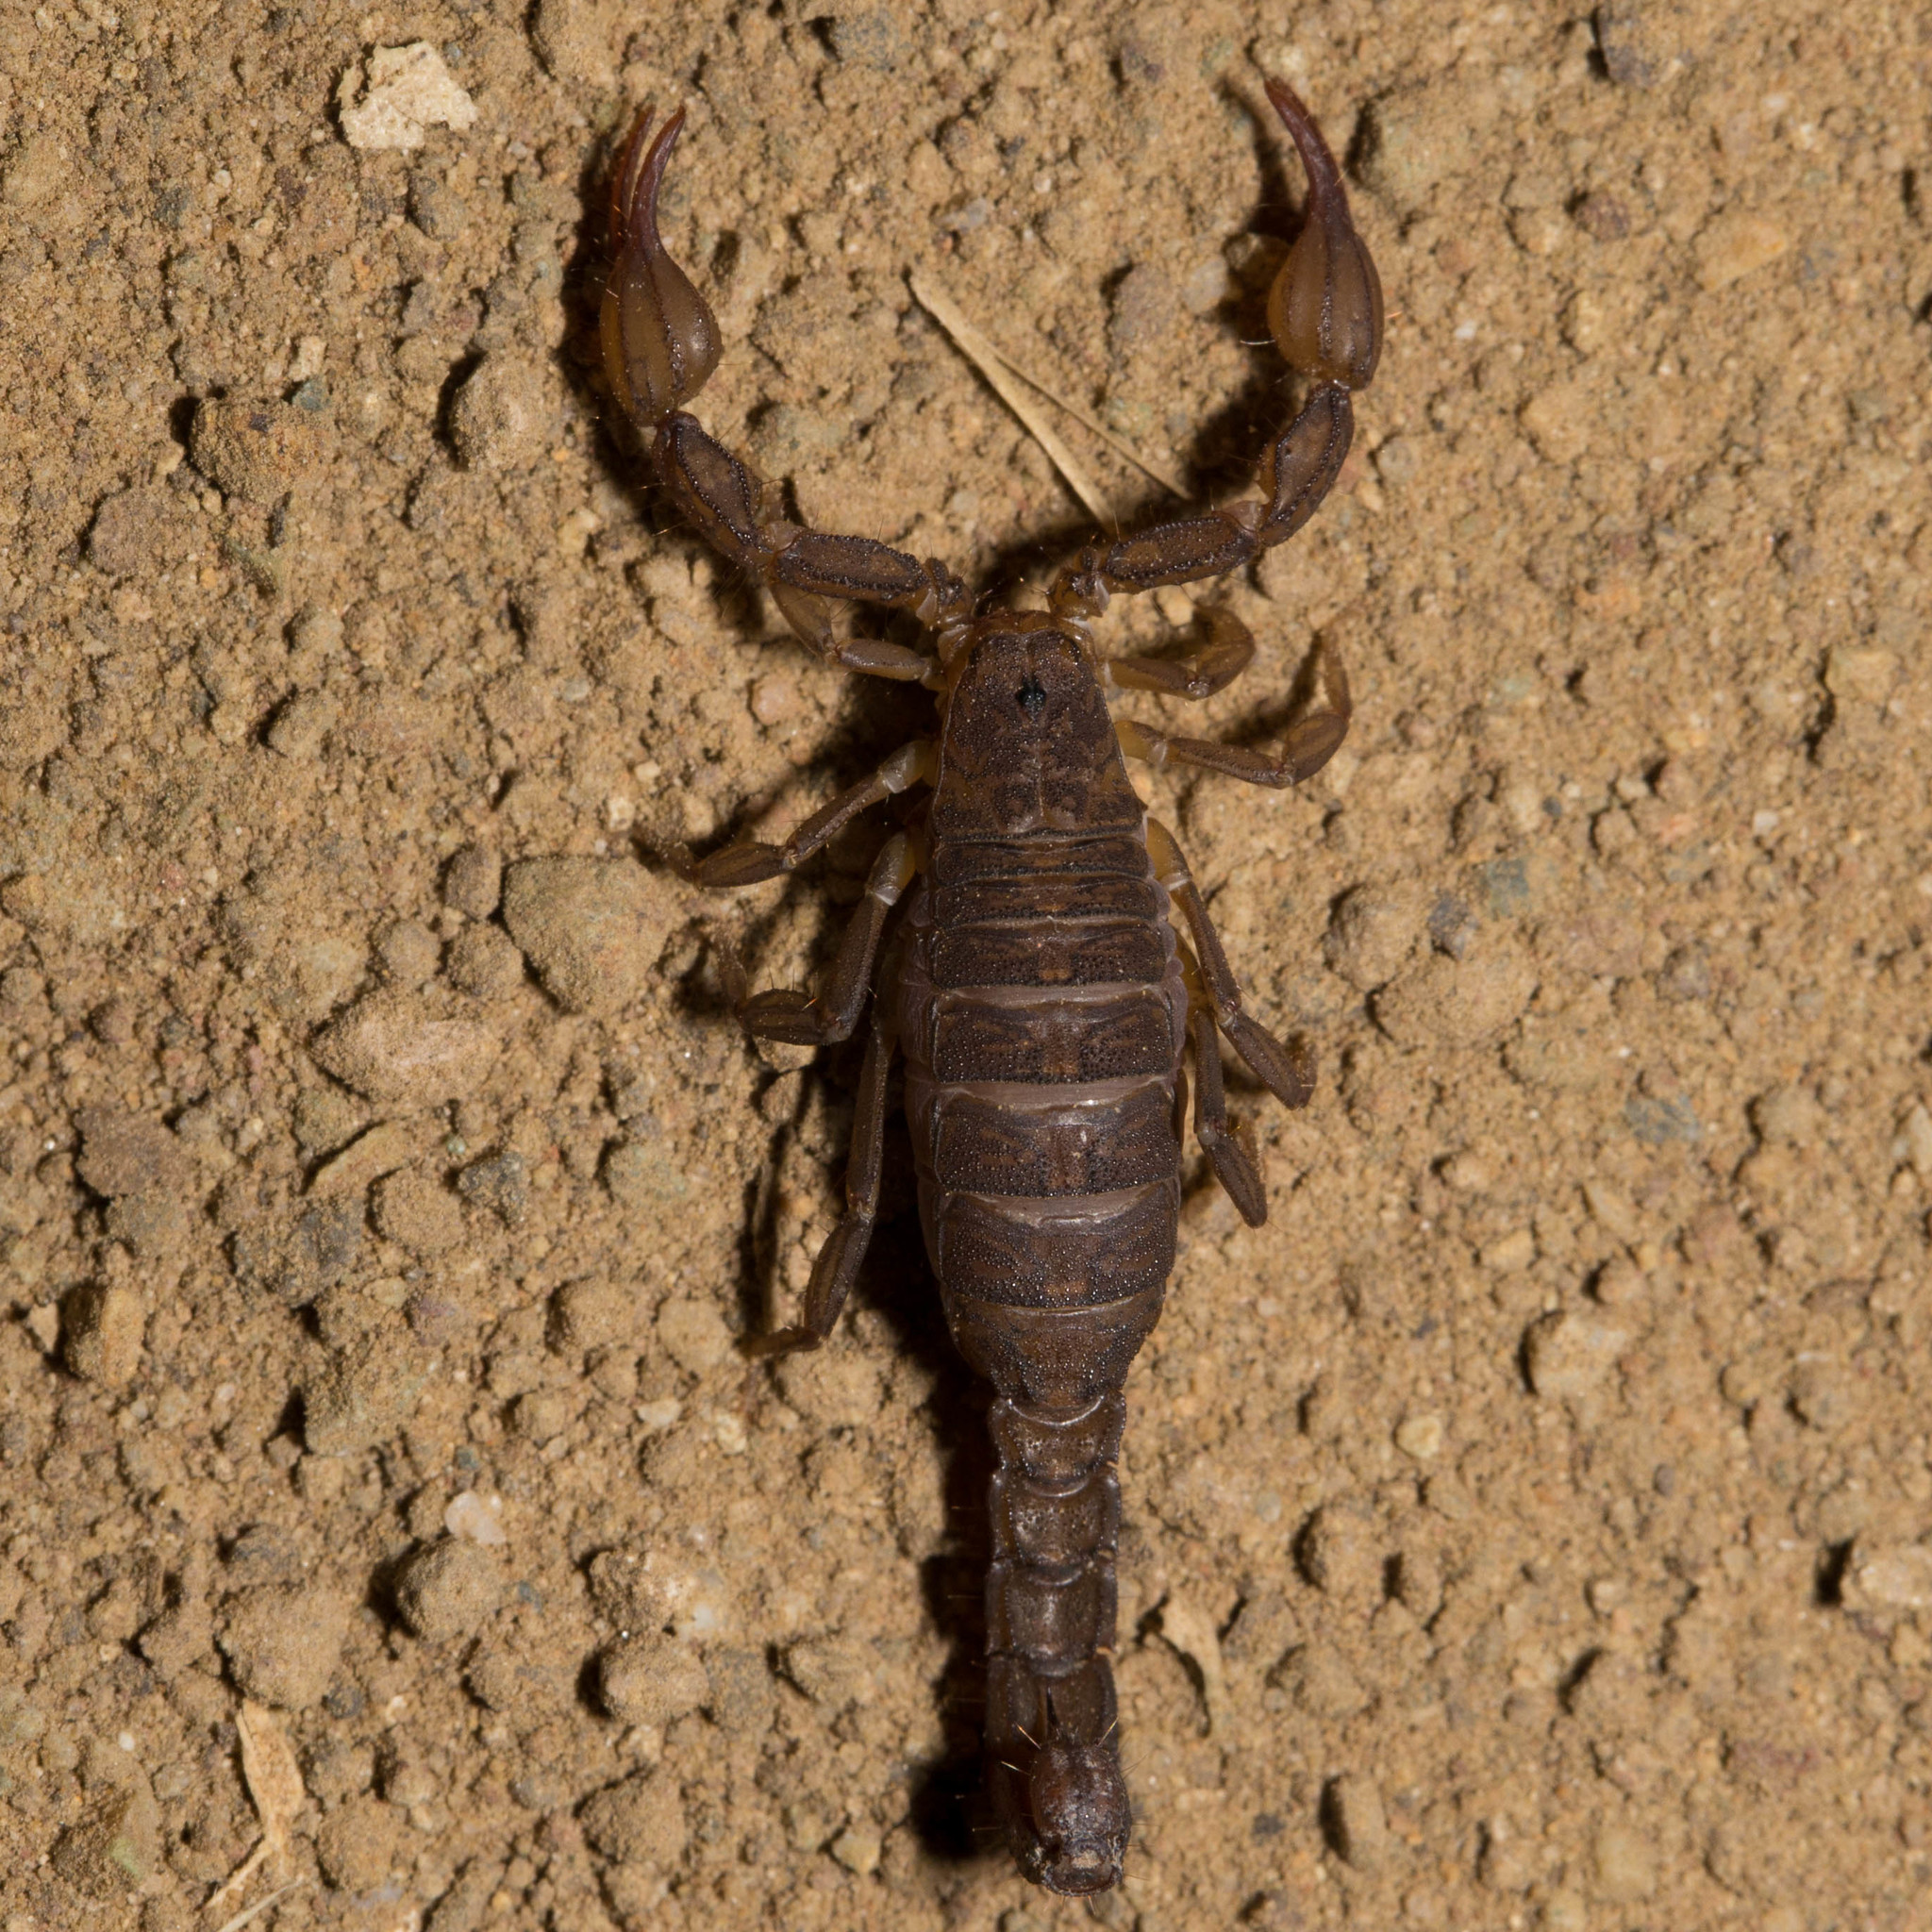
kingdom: Animalia
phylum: Arthropoda
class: Arachnida
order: Scorpiones
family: Vaejovidae
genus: Catalinia
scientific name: Catalinia thompsoni
